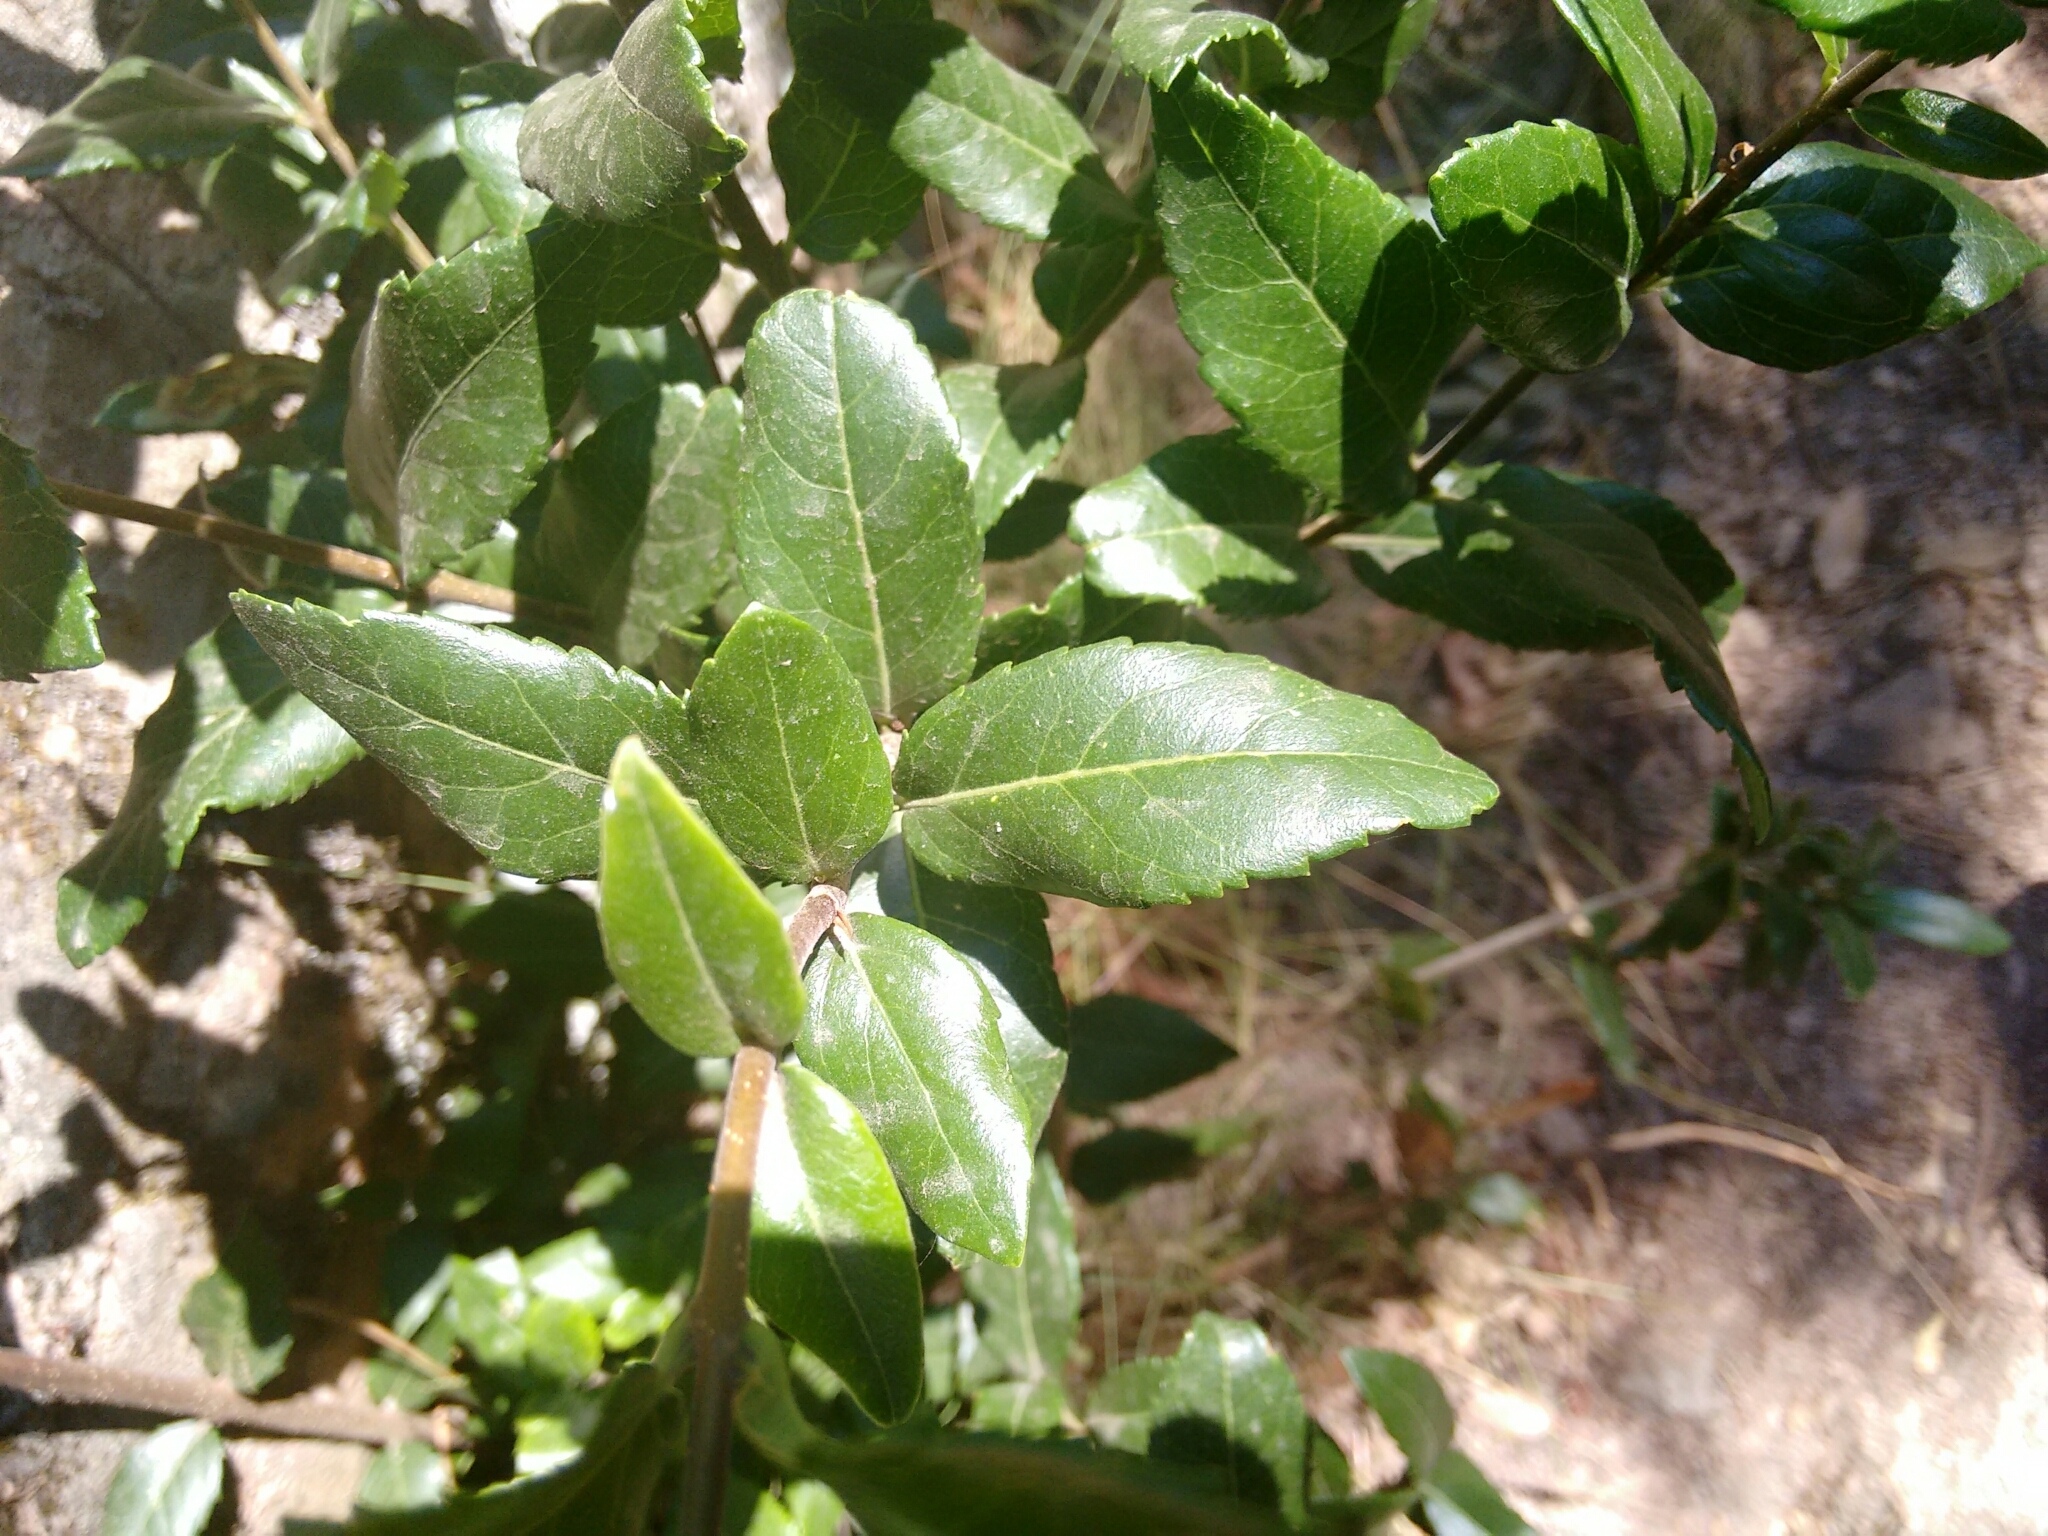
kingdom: Plantae
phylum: Tracheophyta
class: Magnoliopsida
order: Lamiales
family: Oleaceae
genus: Phillyrea
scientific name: Phillyrea latifolia
